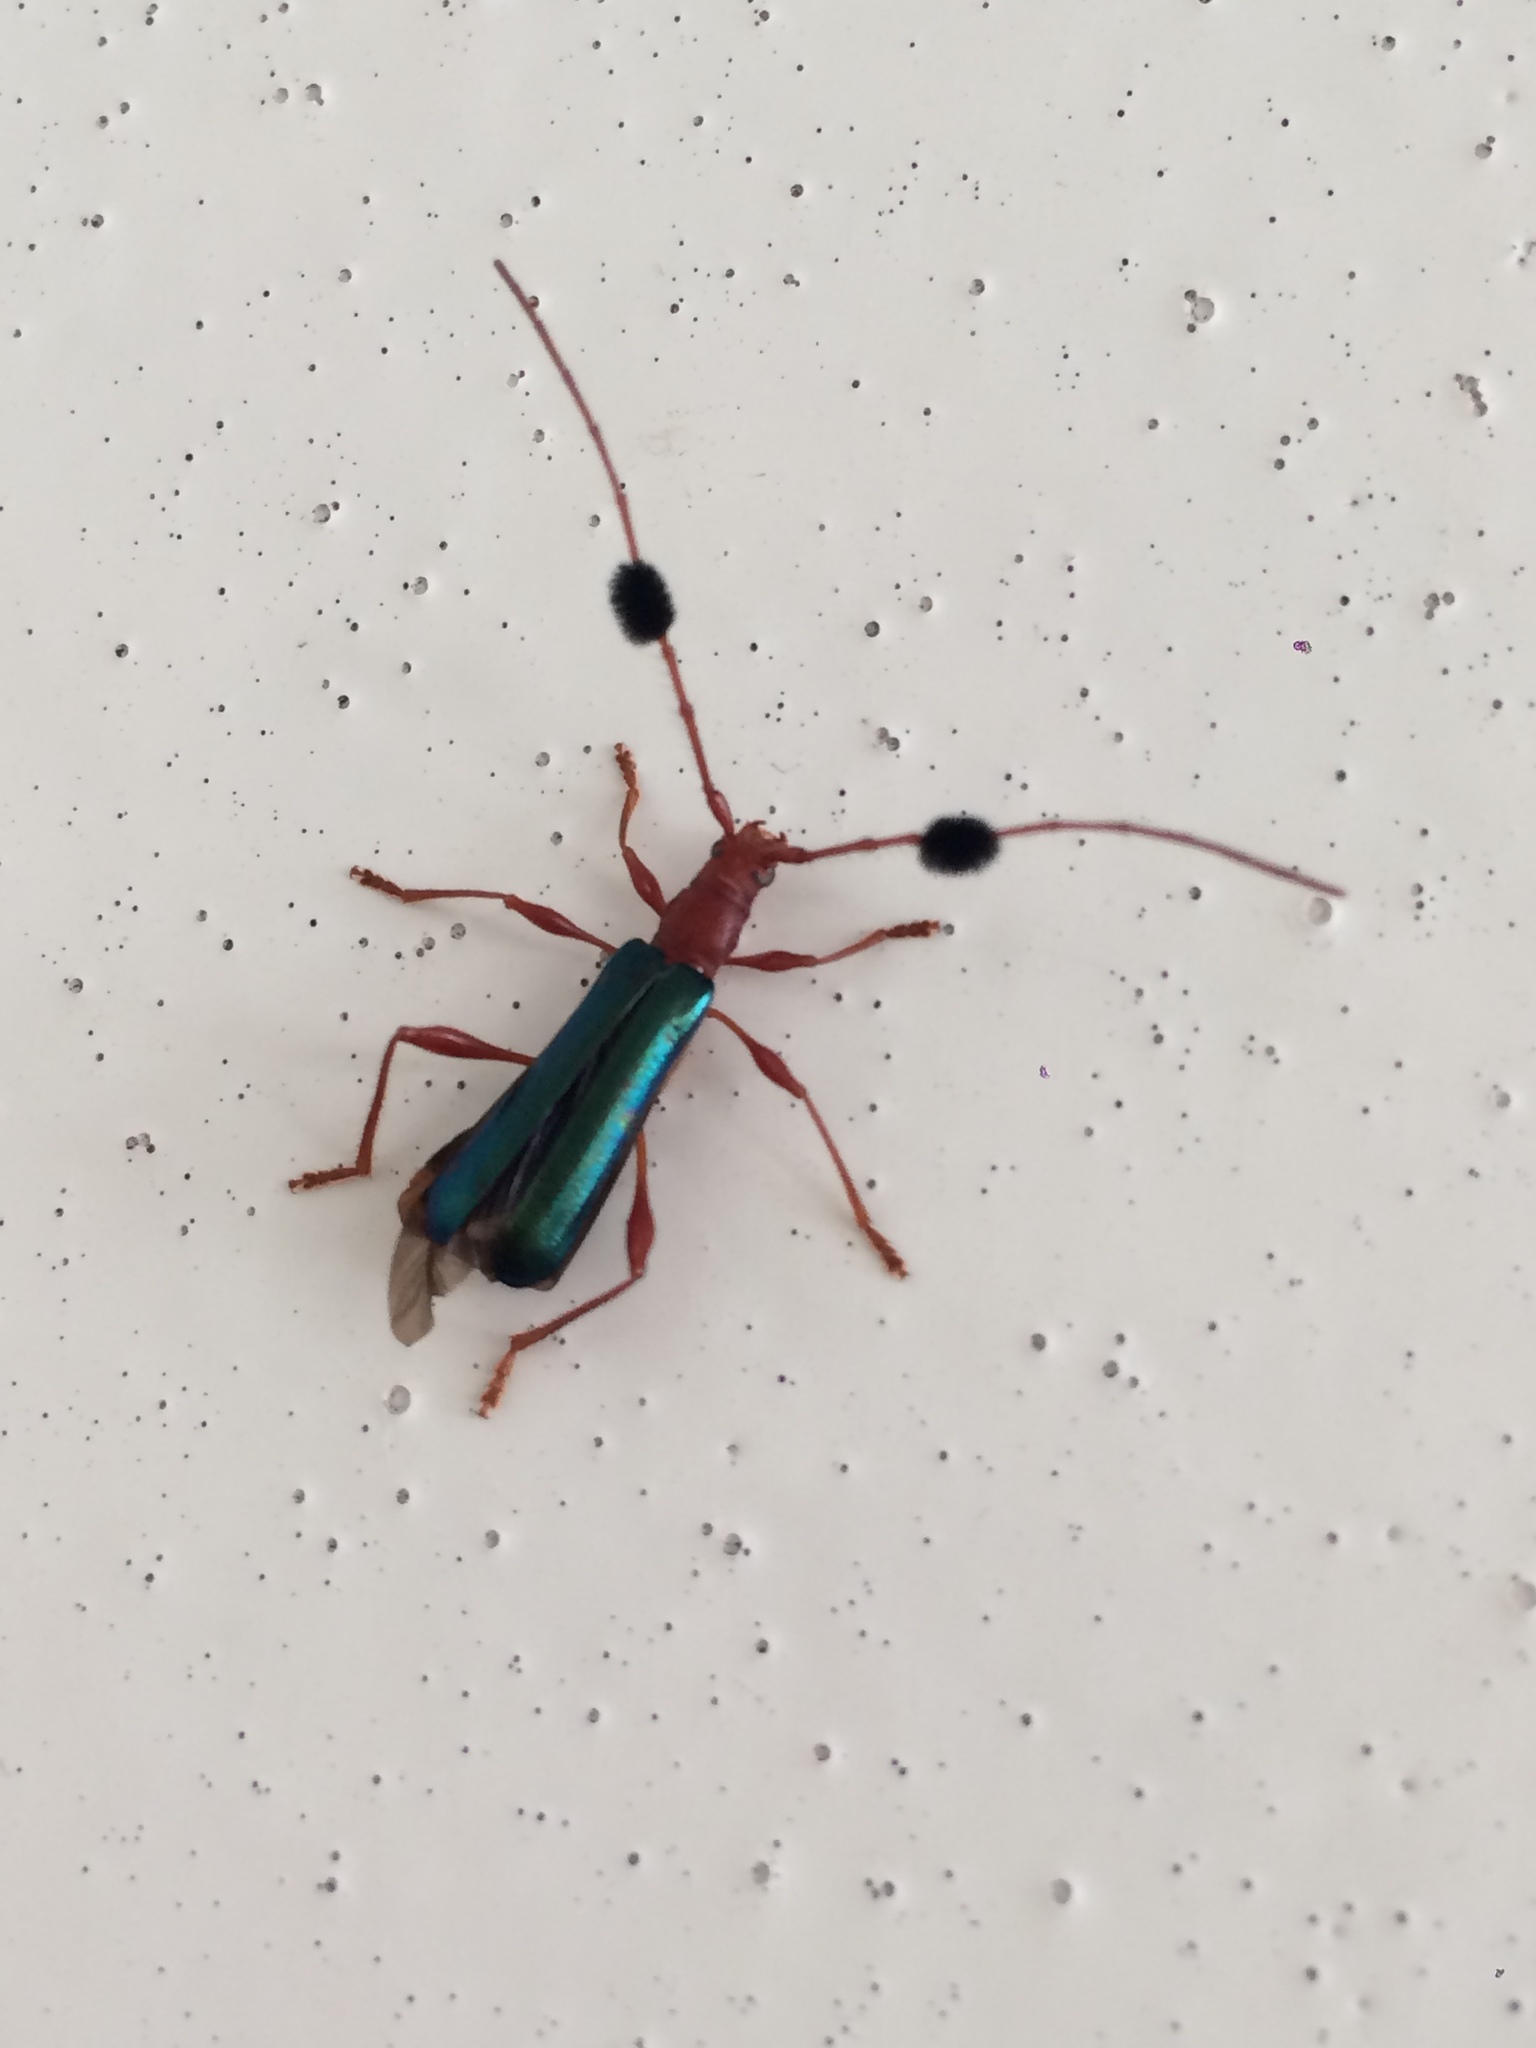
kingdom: Animalia
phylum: Arthropoda
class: Insecta
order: Coleoptera
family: Cerambycidae
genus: Unxia
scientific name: Unxia gracilior
